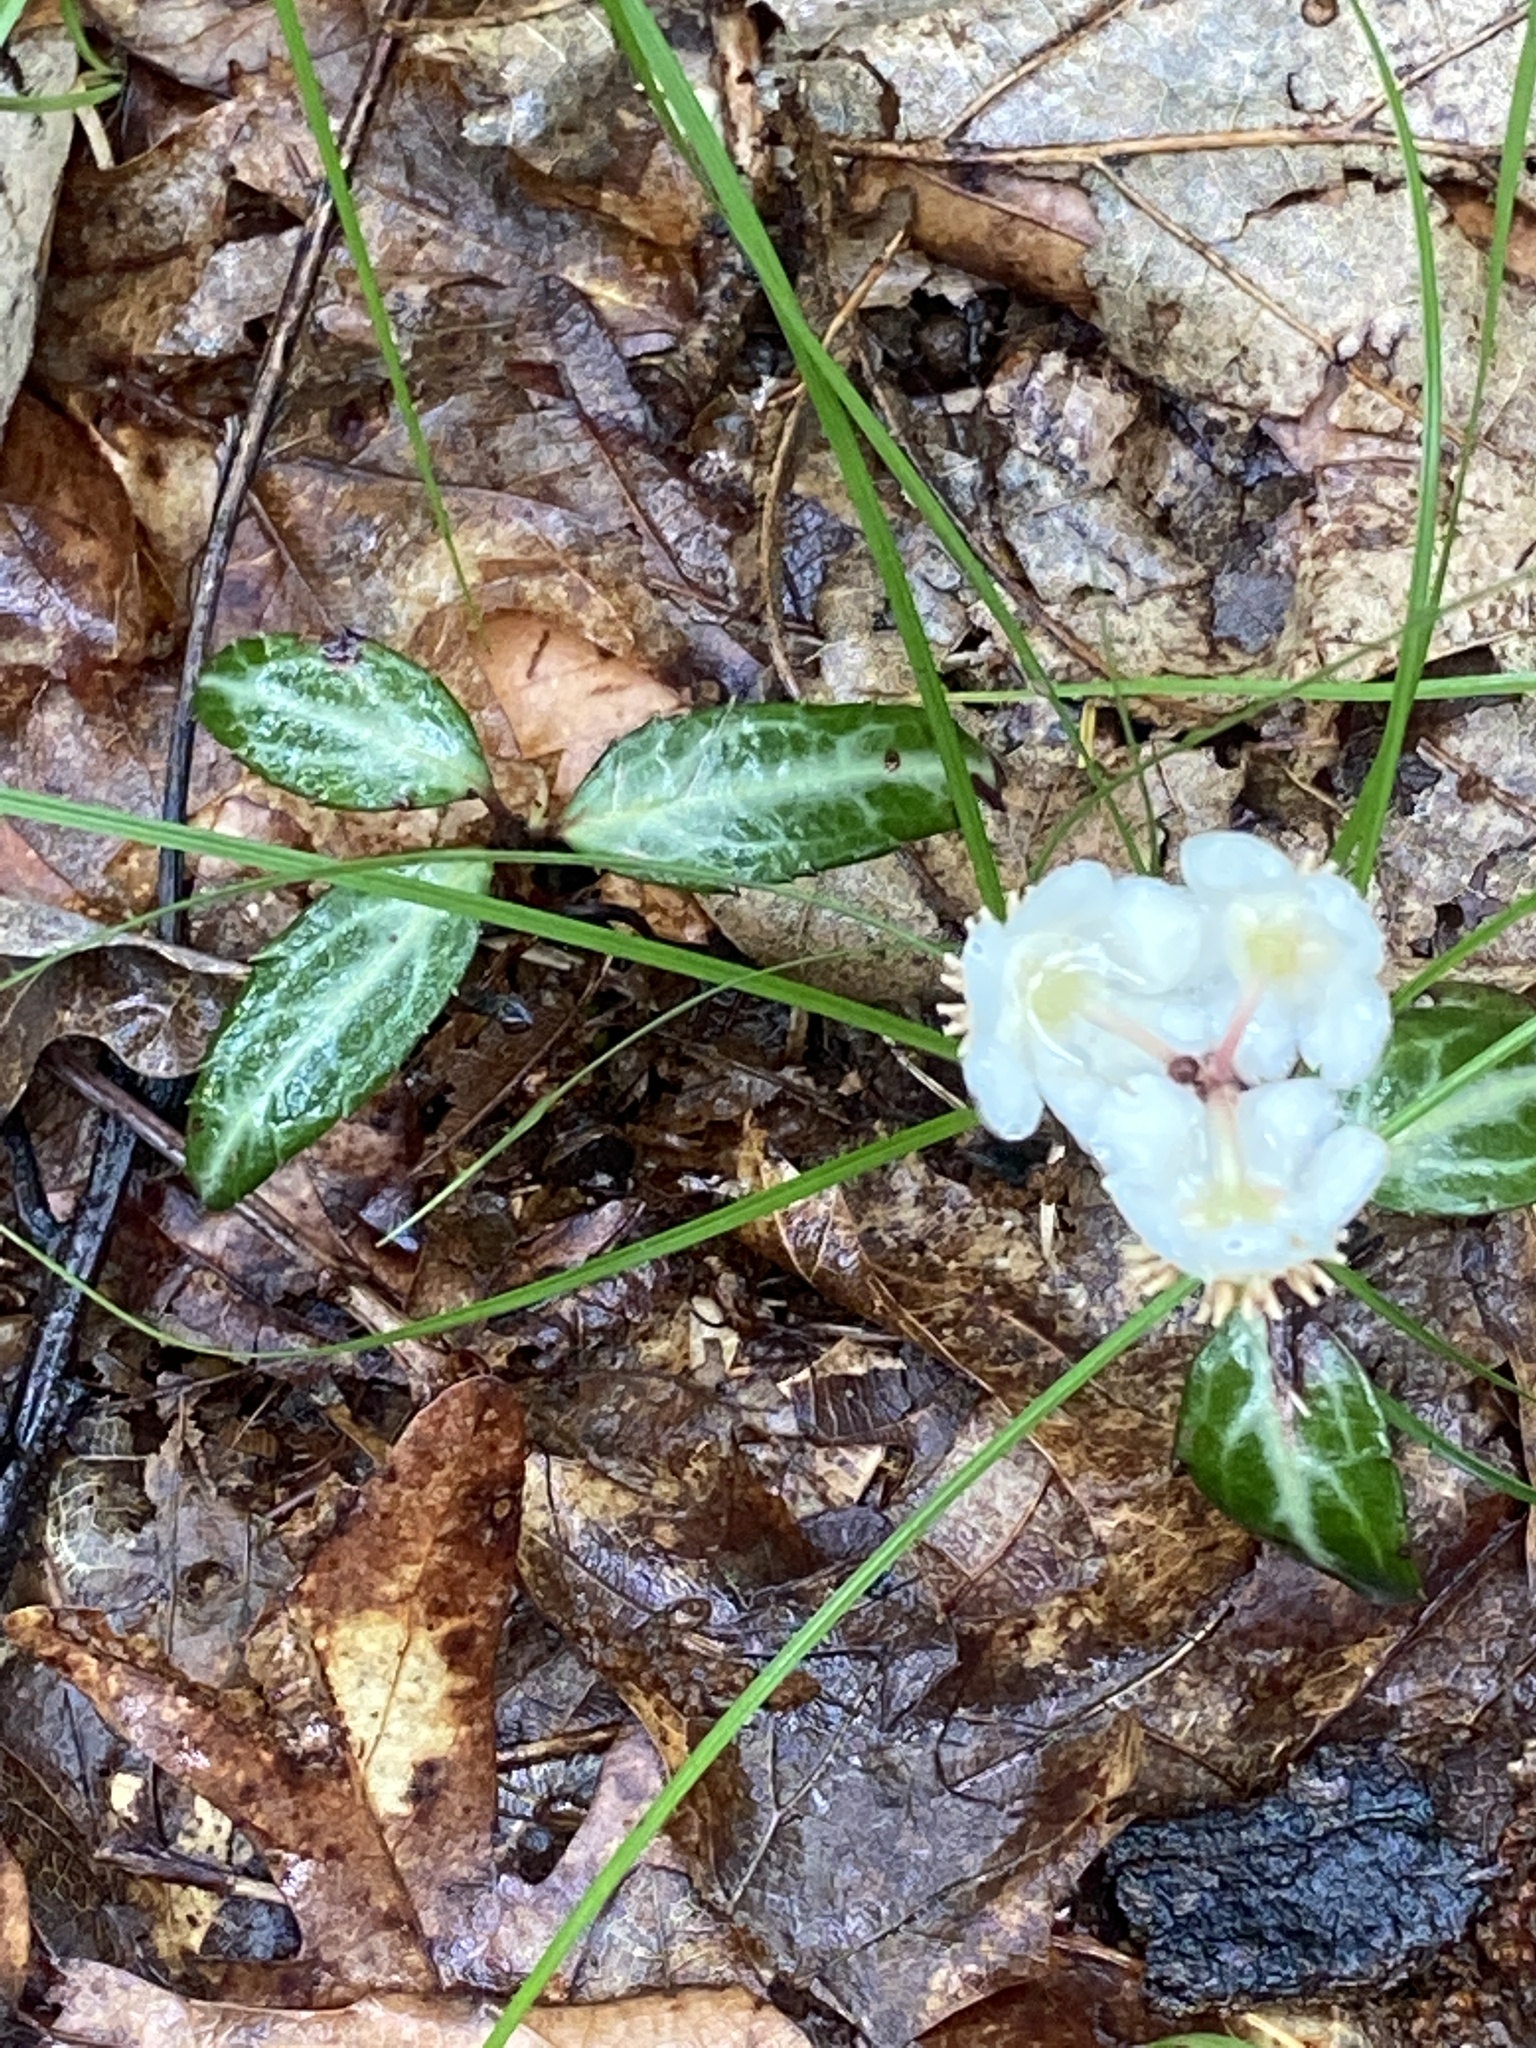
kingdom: Plantae
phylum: Tracheophyta
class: Magnoliopsida
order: Ericales
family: Ericaceae
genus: Chimaphila
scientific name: Chimaphila maculata
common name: Spotted pipsissewa
